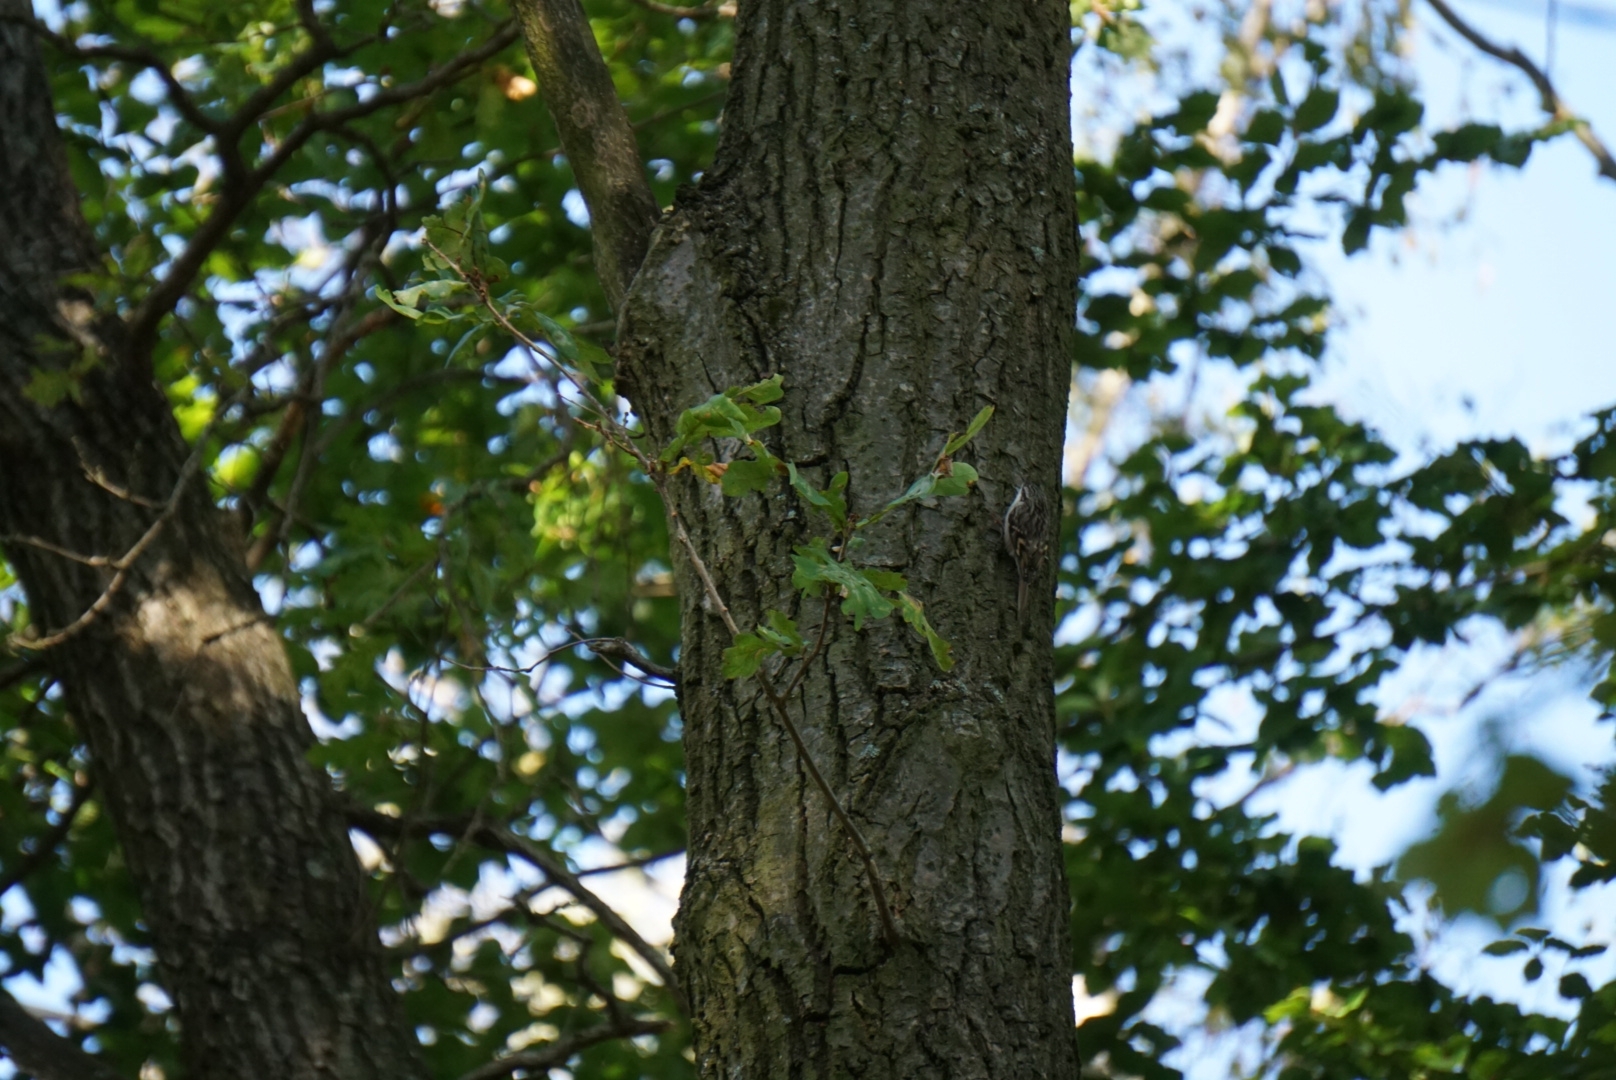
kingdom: Animalia
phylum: Chordata
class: Aves
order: Passeriformes
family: Certhiidae
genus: Certhia
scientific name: Certhia
